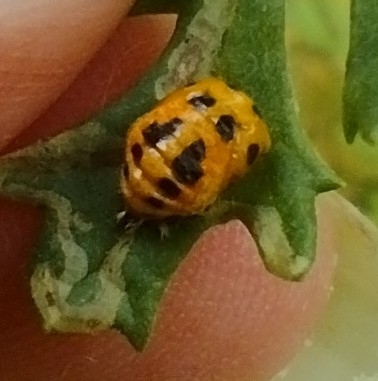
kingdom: Animalia
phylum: Arthropoda
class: Insecta
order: Coleoptera
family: Coccinellidae
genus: Harmonia
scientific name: Harmonia axyridis
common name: Harlequin ladybird
